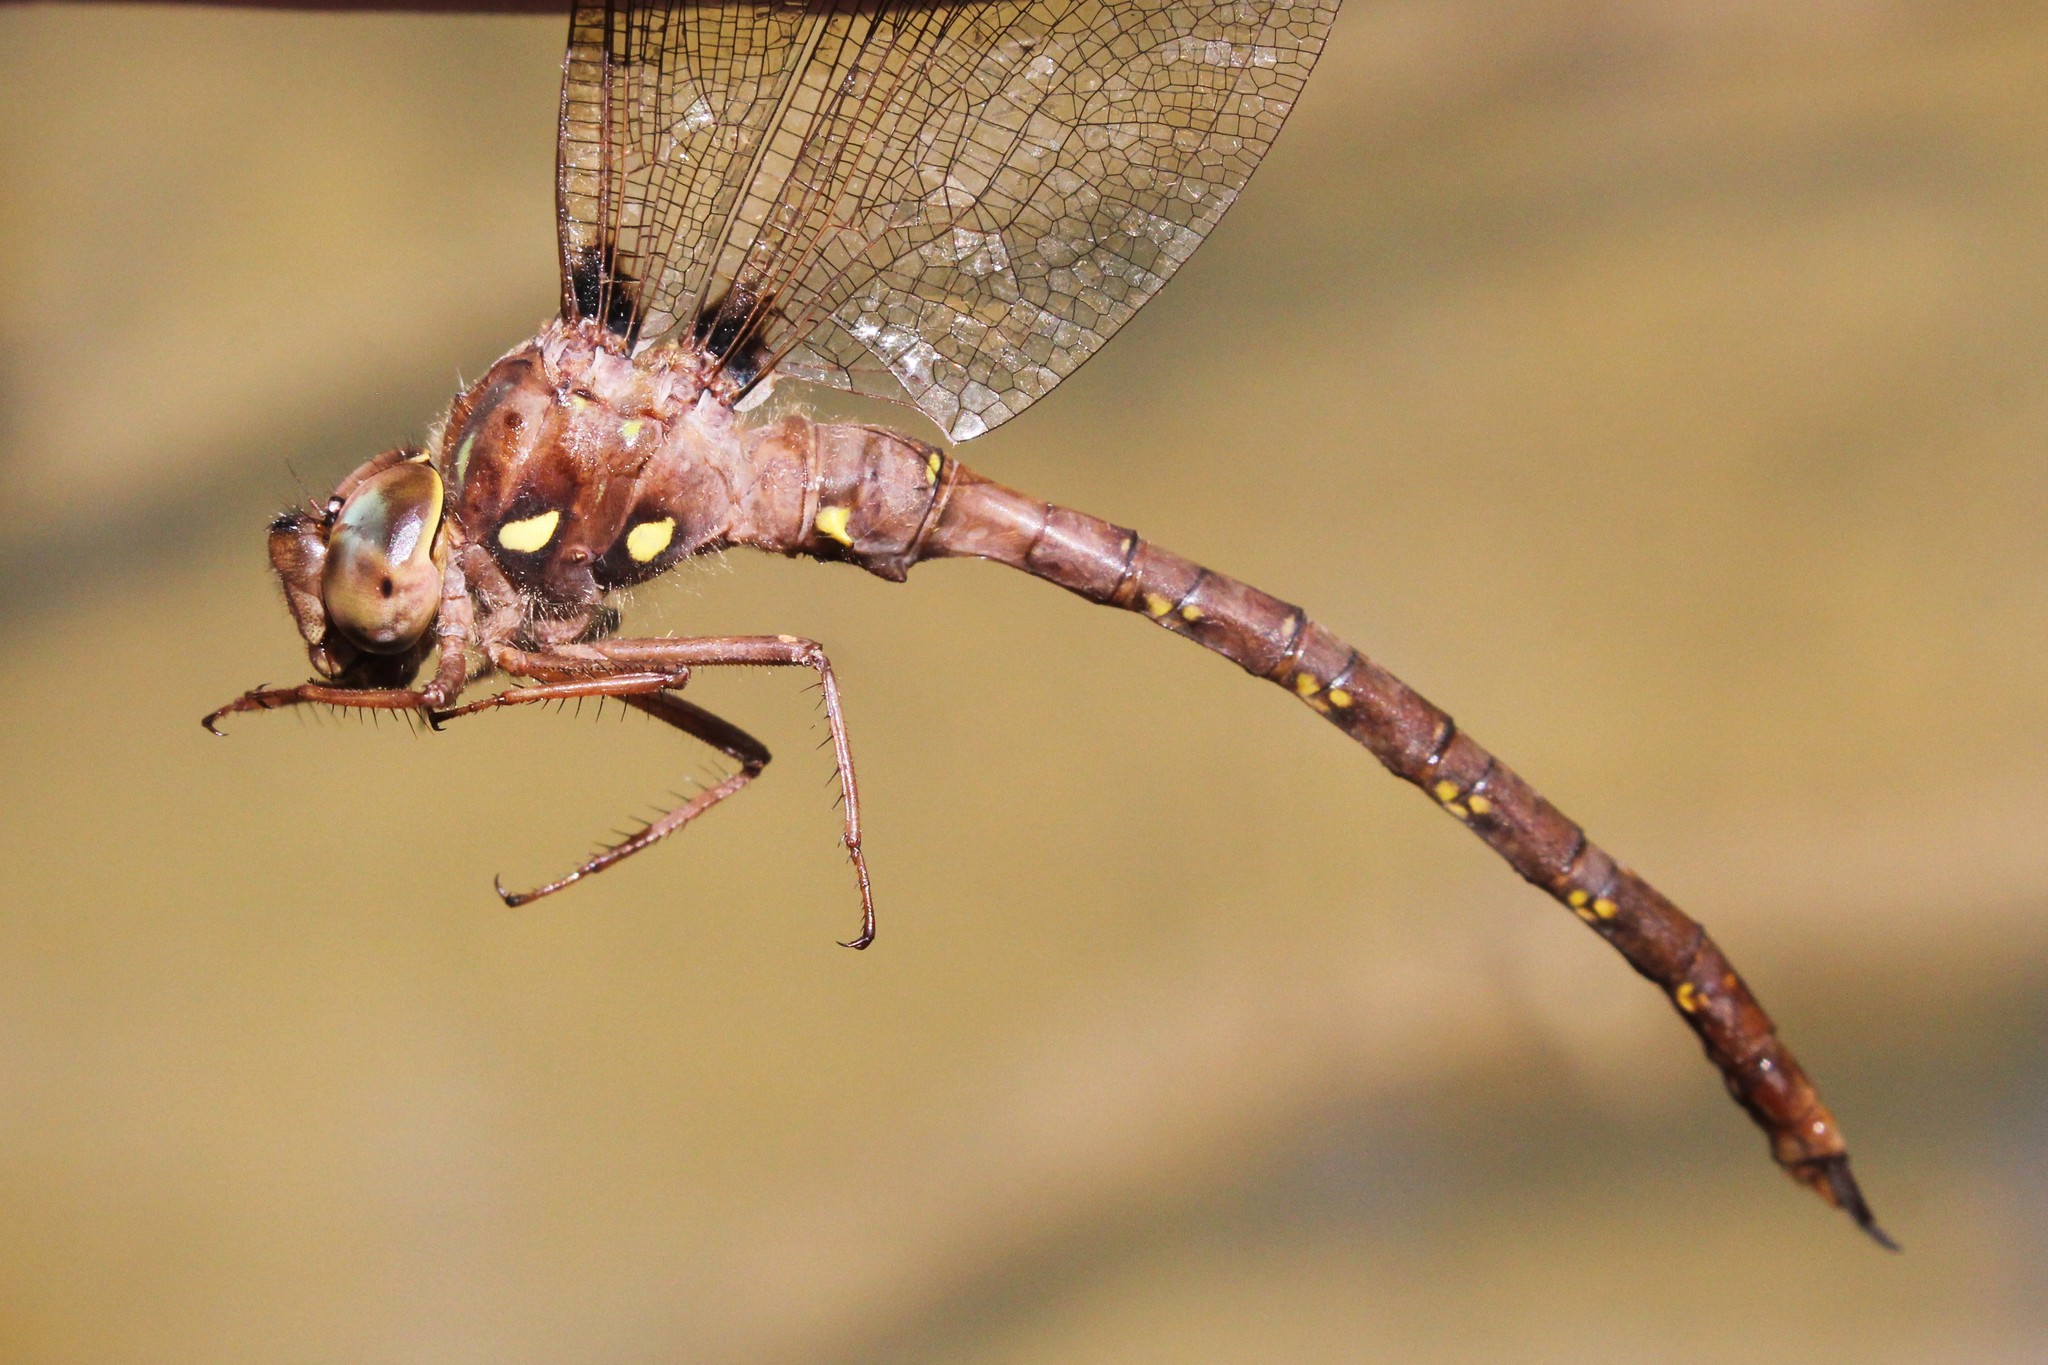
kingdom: Animalia
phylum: Arthropoda
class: Insecta
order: Odonata
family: Aeshnidae
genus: Boyeria
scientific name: Boyeria vinosa
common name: Fawn darner
